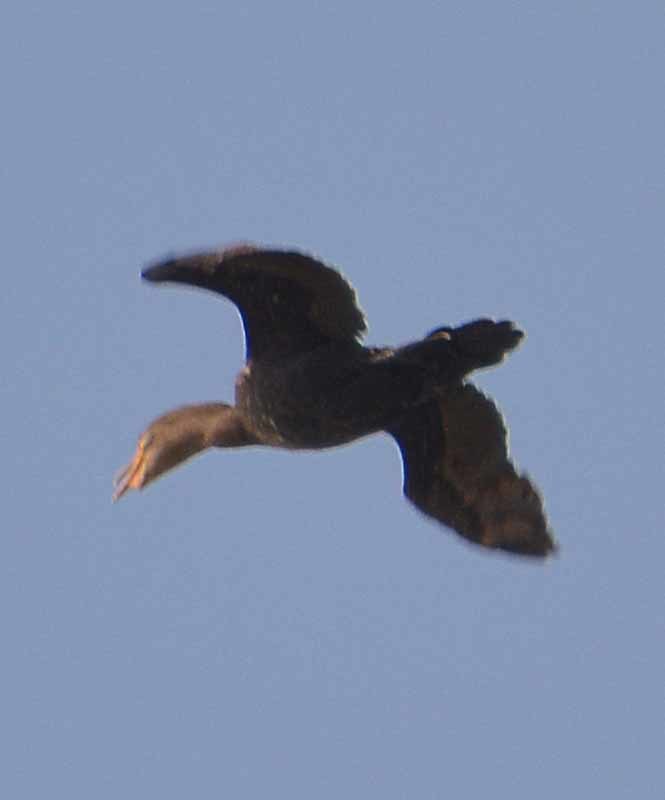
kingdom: Animalia
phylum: Chordata
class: Aves
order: Suliformes
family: Phalacrocoracidae
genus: Phalacrocorax
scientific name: Phalacrocorax brasilianus
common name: Neotropic cormorant
